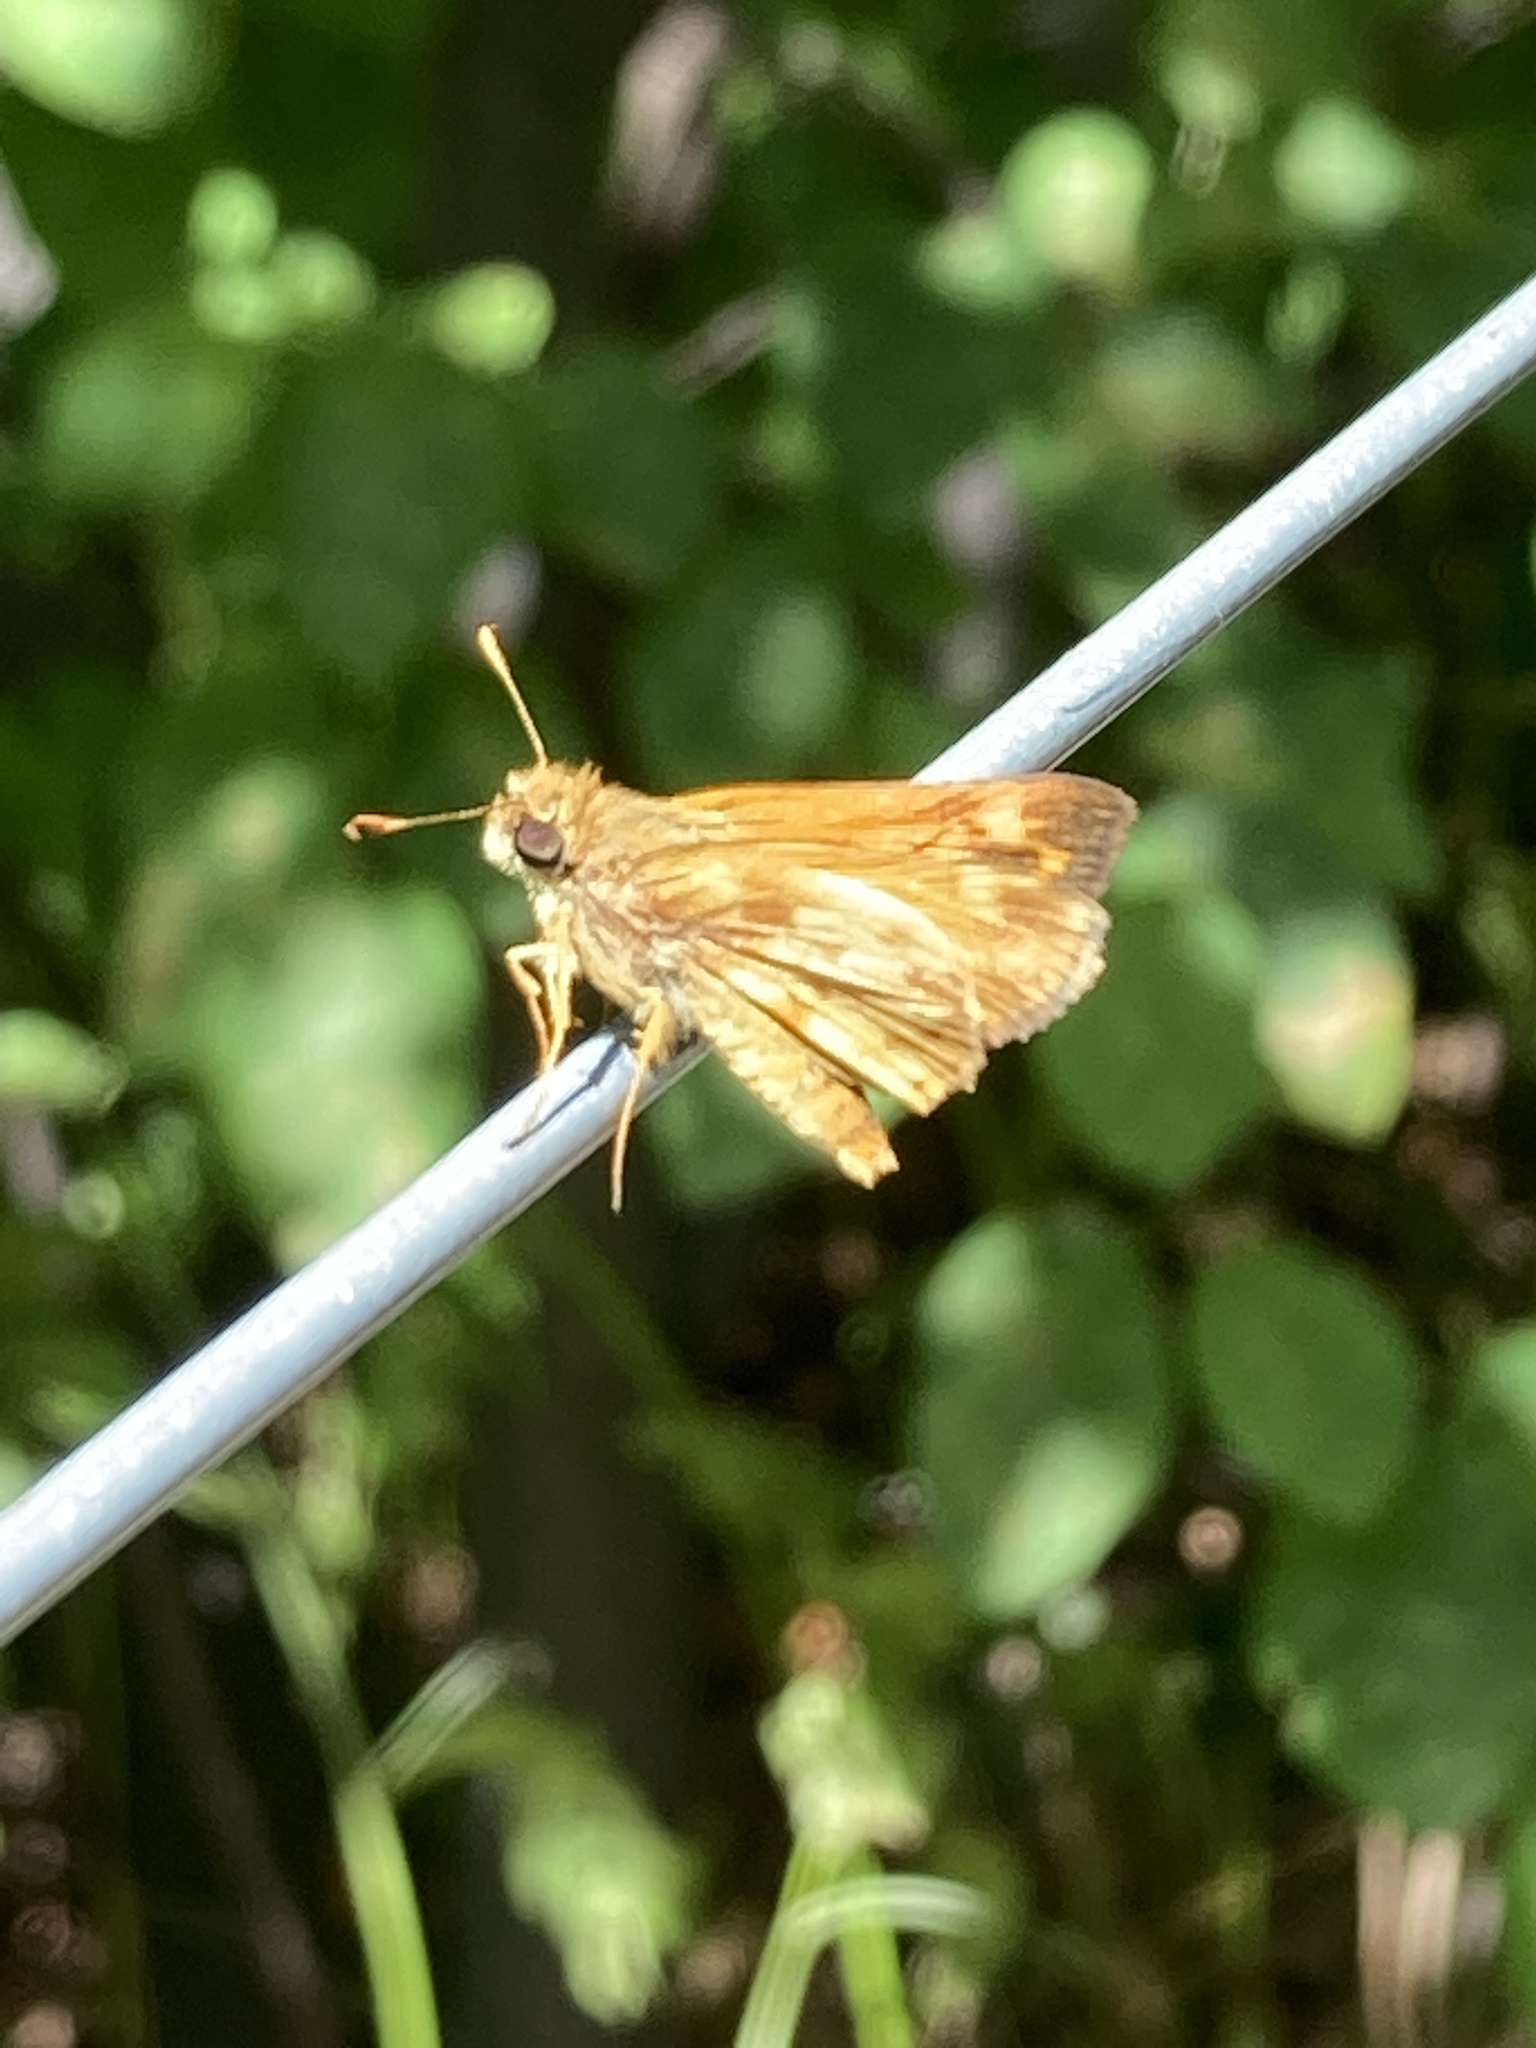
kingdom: Animalia
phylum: Arthropoda
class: Insecta
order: Lepidoptera
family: Hesperiidae
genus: Lon
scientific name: Lon zabulon
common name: Zabulon skipper
